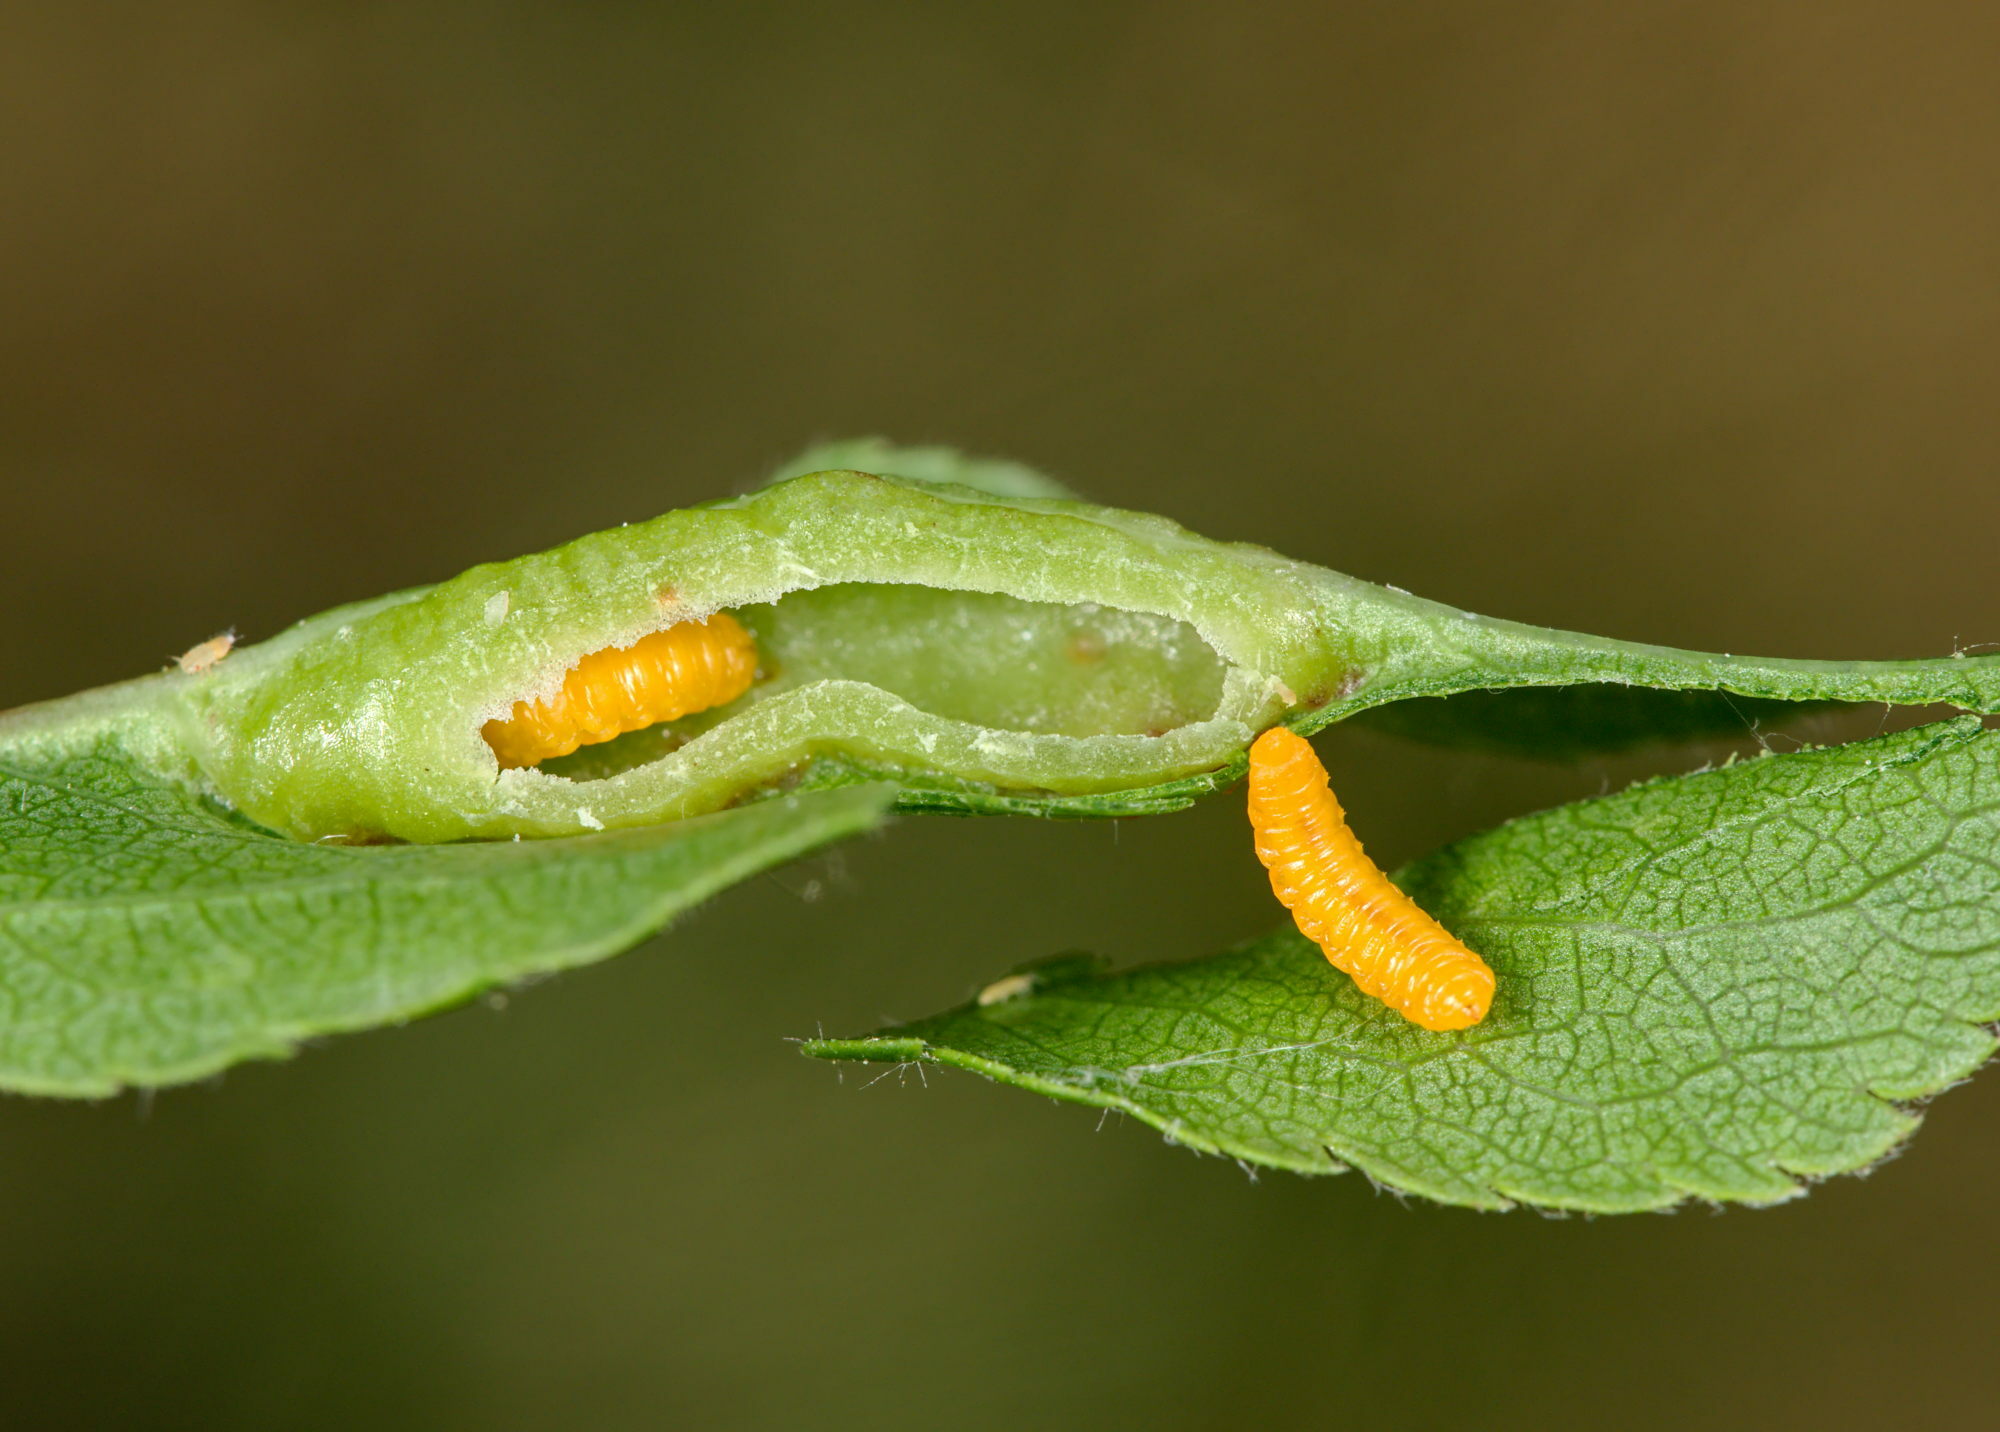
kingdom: Animalia
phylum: Arthropoda
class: Insecta
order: Diptera
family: Cecidomyiidae
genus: Putoniella
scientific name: Putoniella pruni
